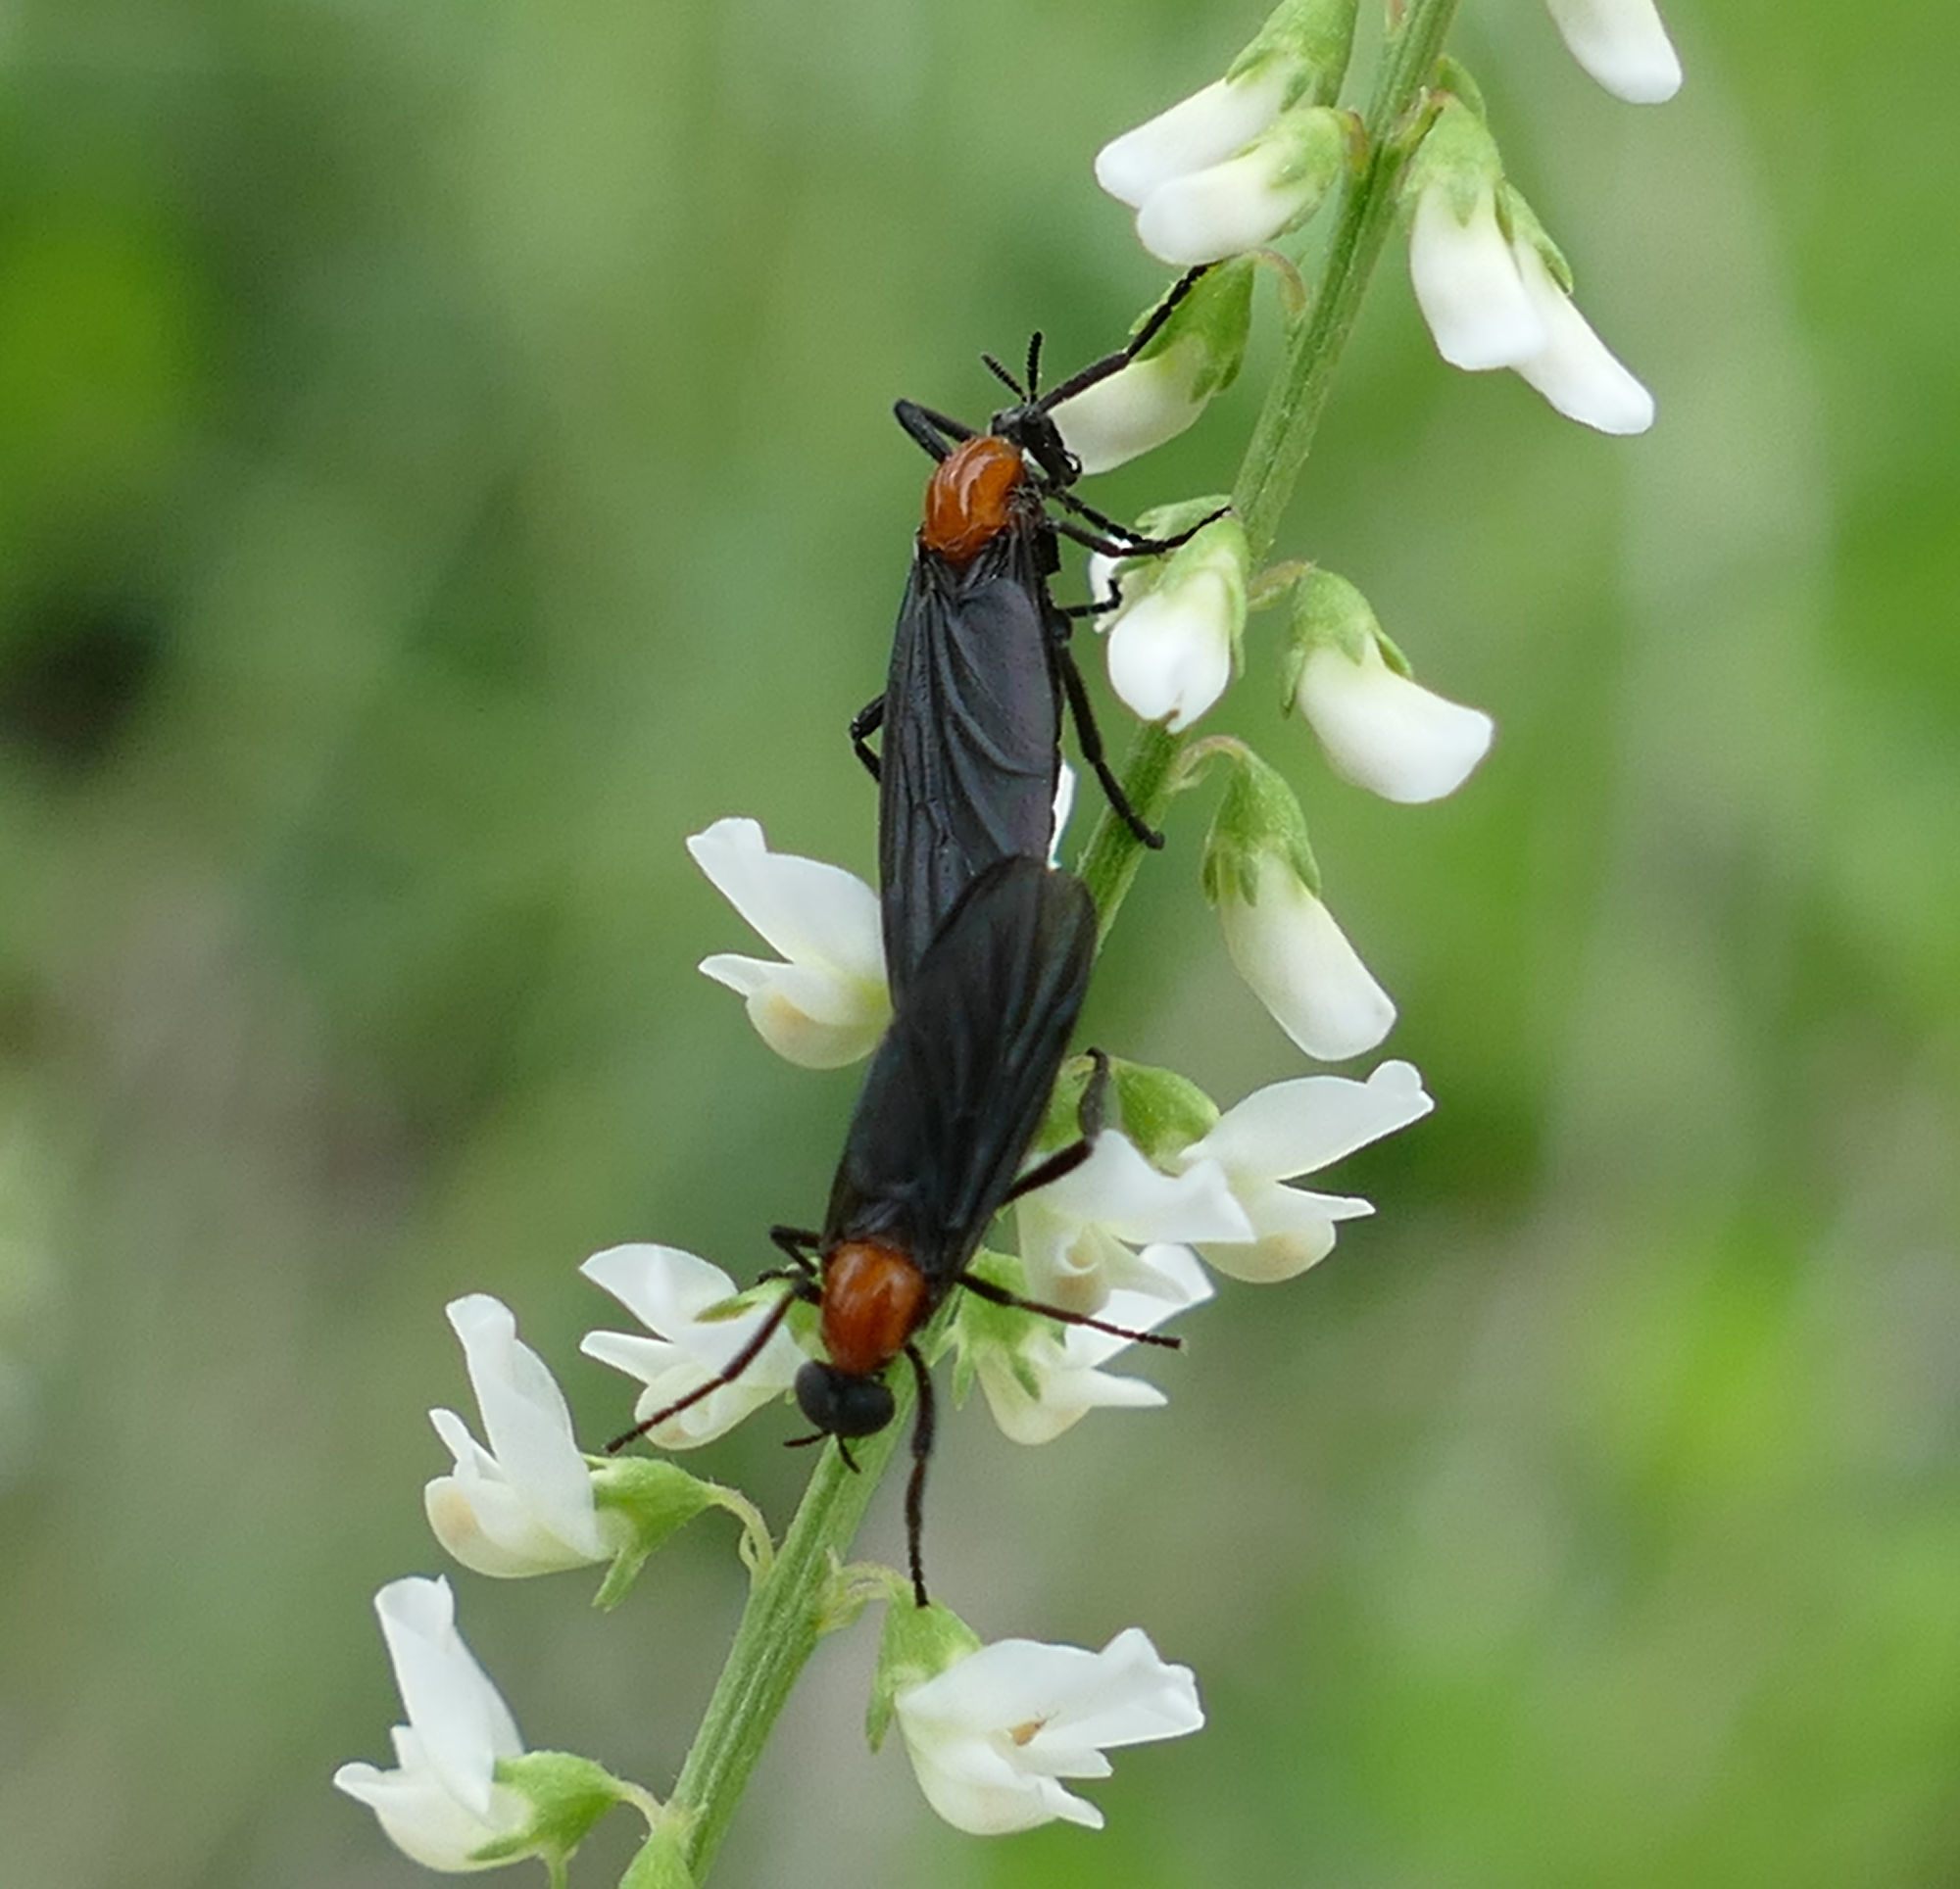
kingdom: Animalia
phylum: Arthropoda
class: Insecta
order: Diptera
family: Bibionidae
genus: Plecia
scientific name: Plecia nearctica
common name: March fly
